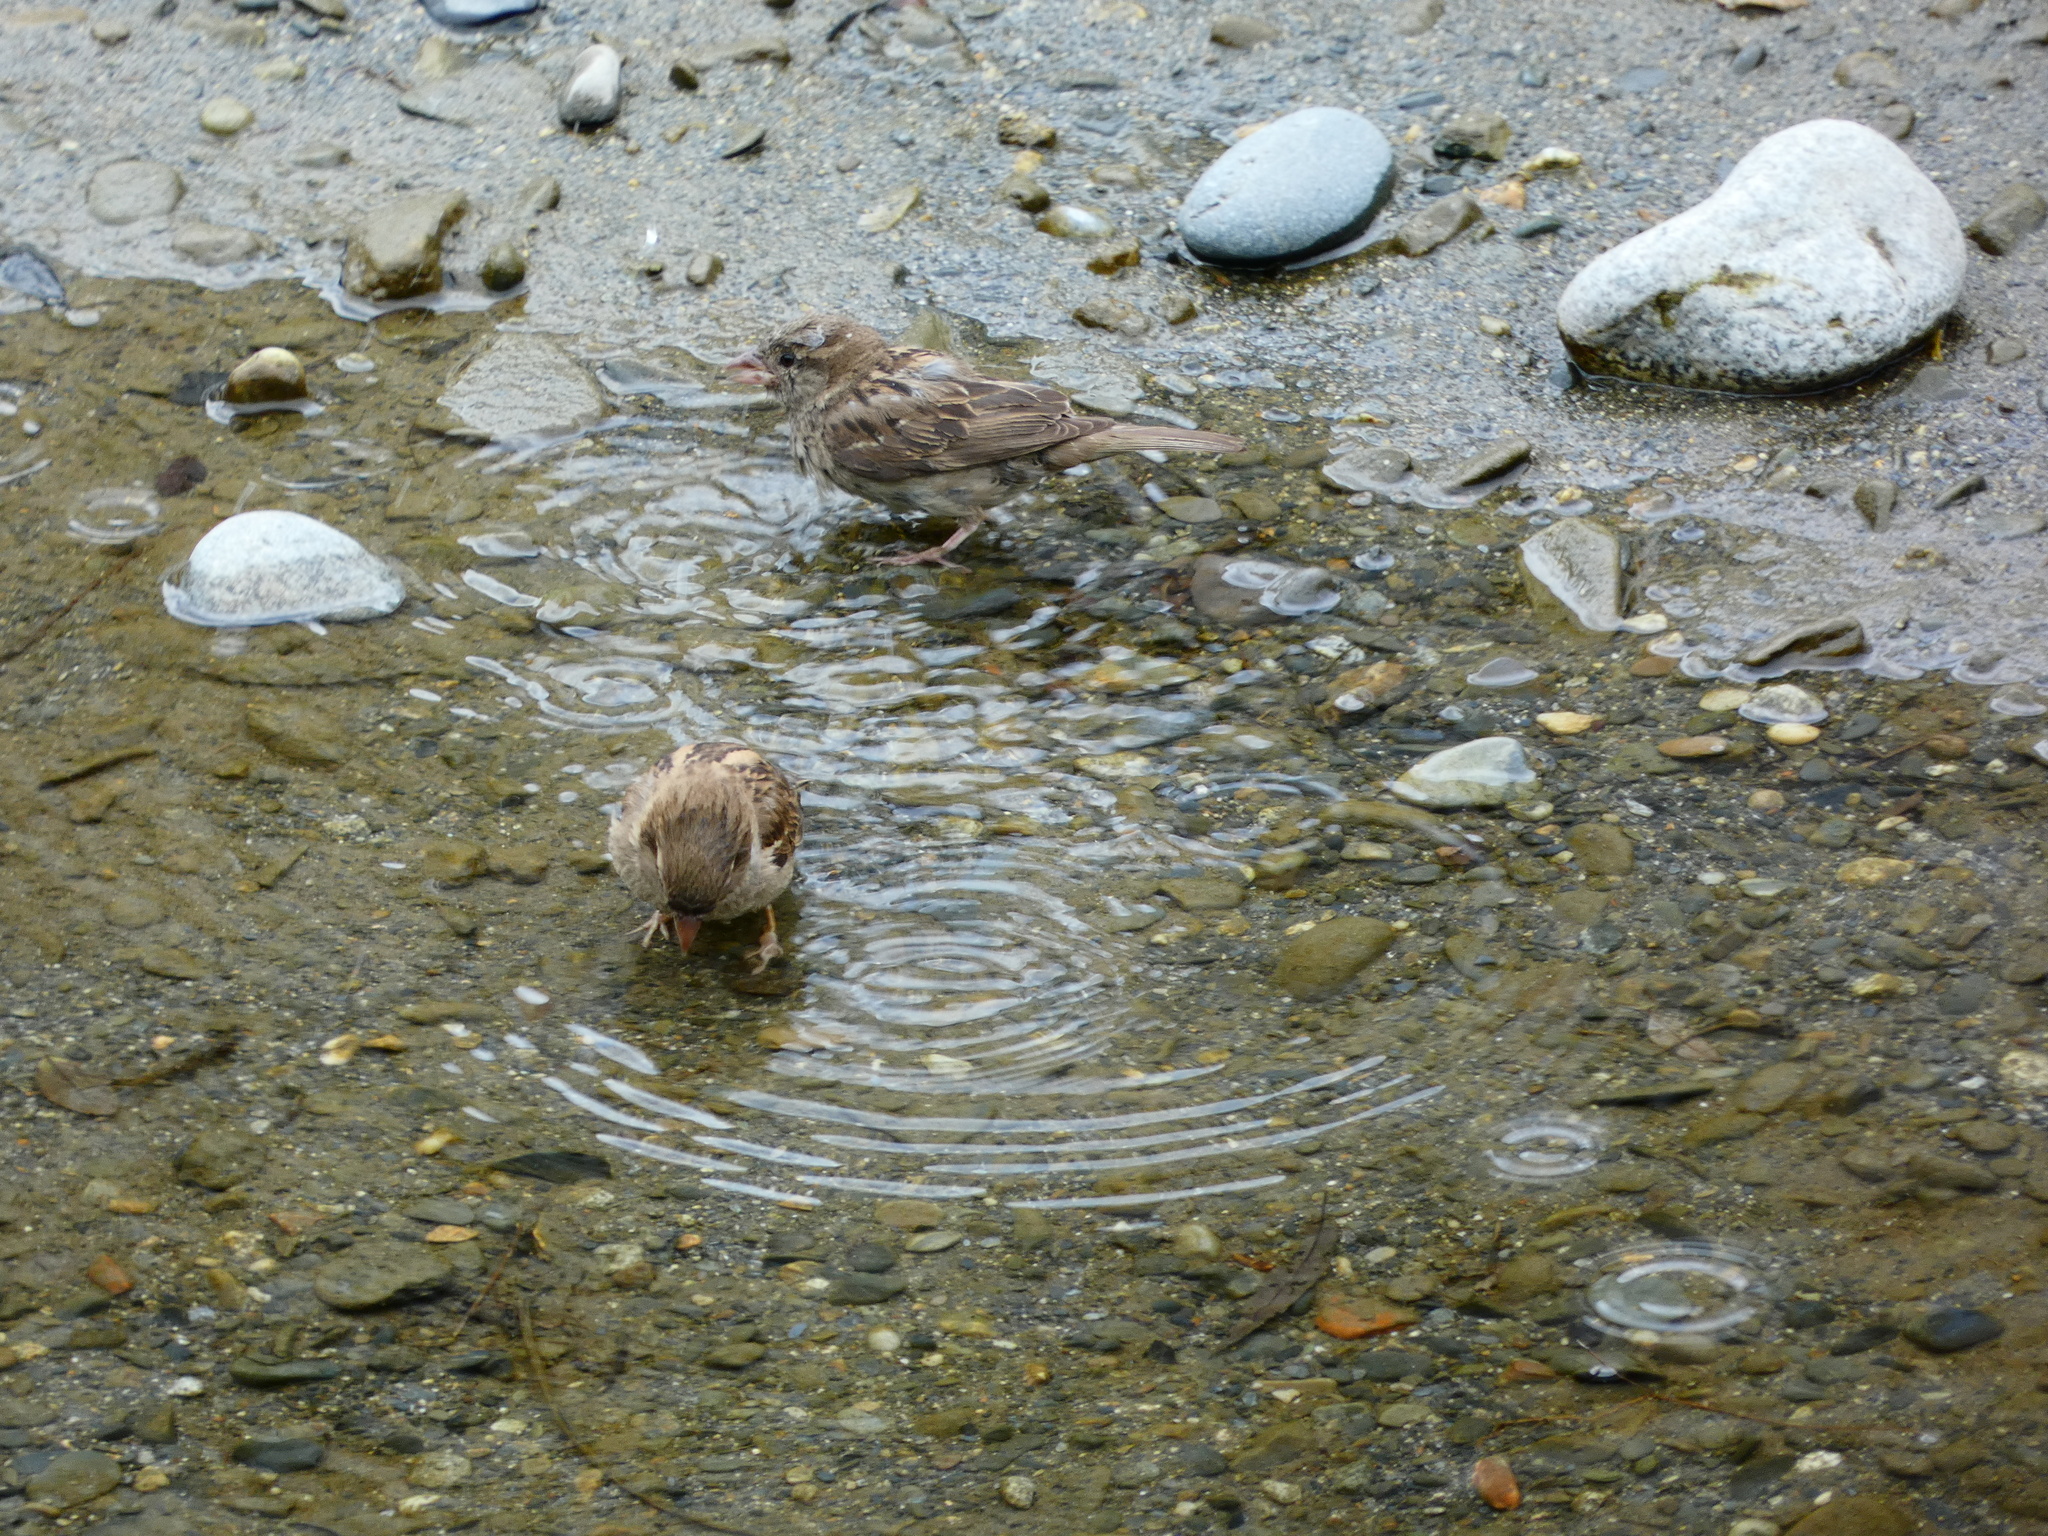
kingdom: Animalia
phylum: Chordata
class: Aves
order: Passeriformes
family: Passeridae
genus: Passer
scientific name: Passer domesticus
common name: House sparrow
